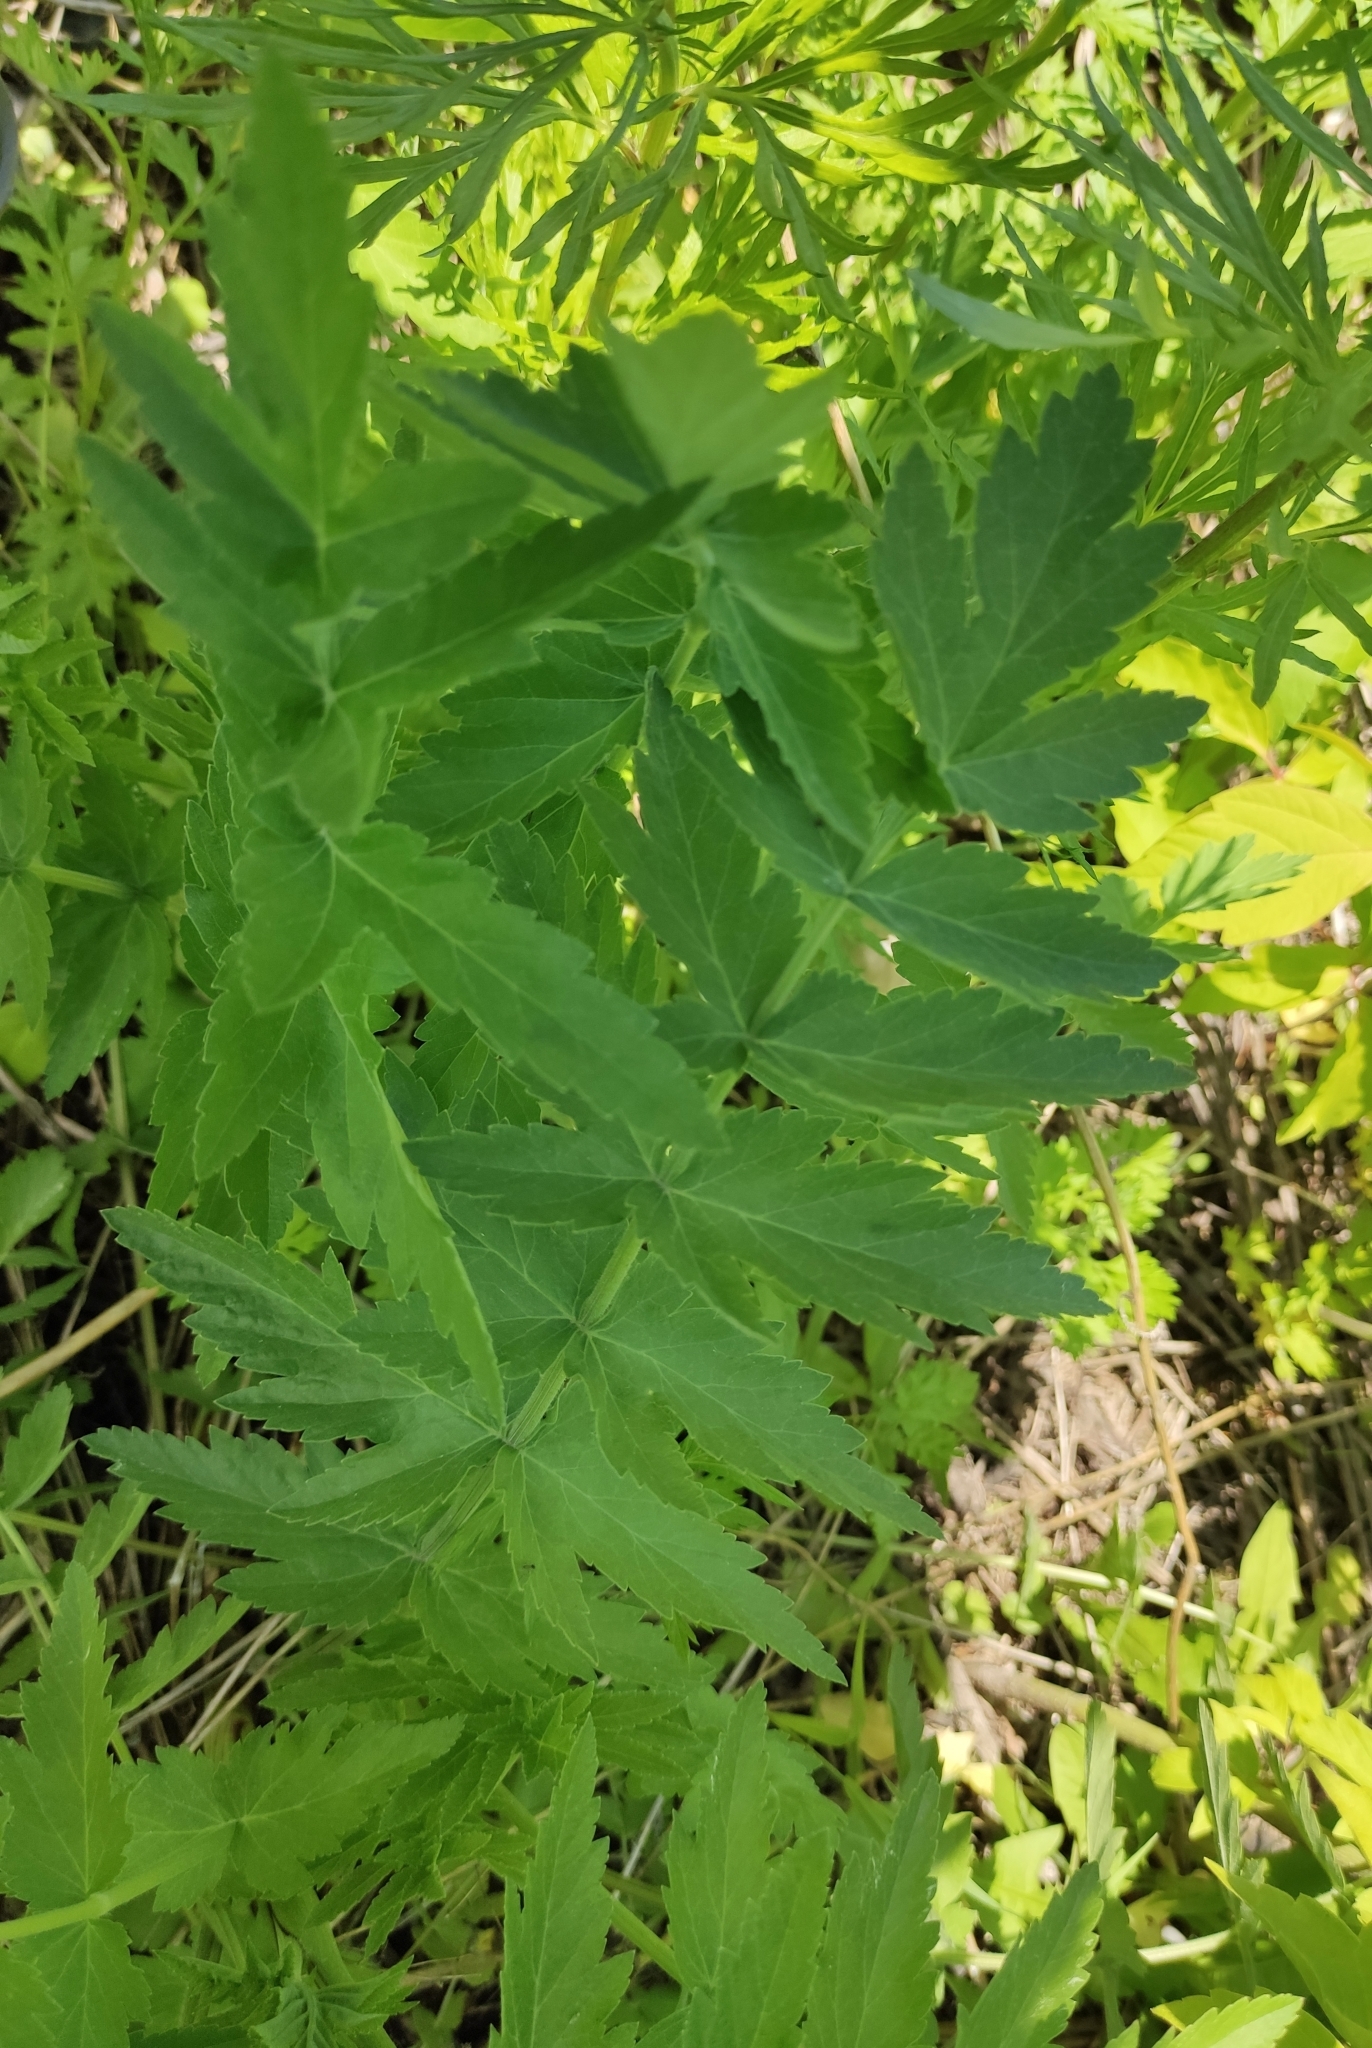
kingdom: Plantae
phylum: Tracheophyta
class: Magnoliopsida
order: Apiales
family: Apiaceae
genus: Pastinaca
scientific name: Pastinaca sativa
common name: Wild parsnip
